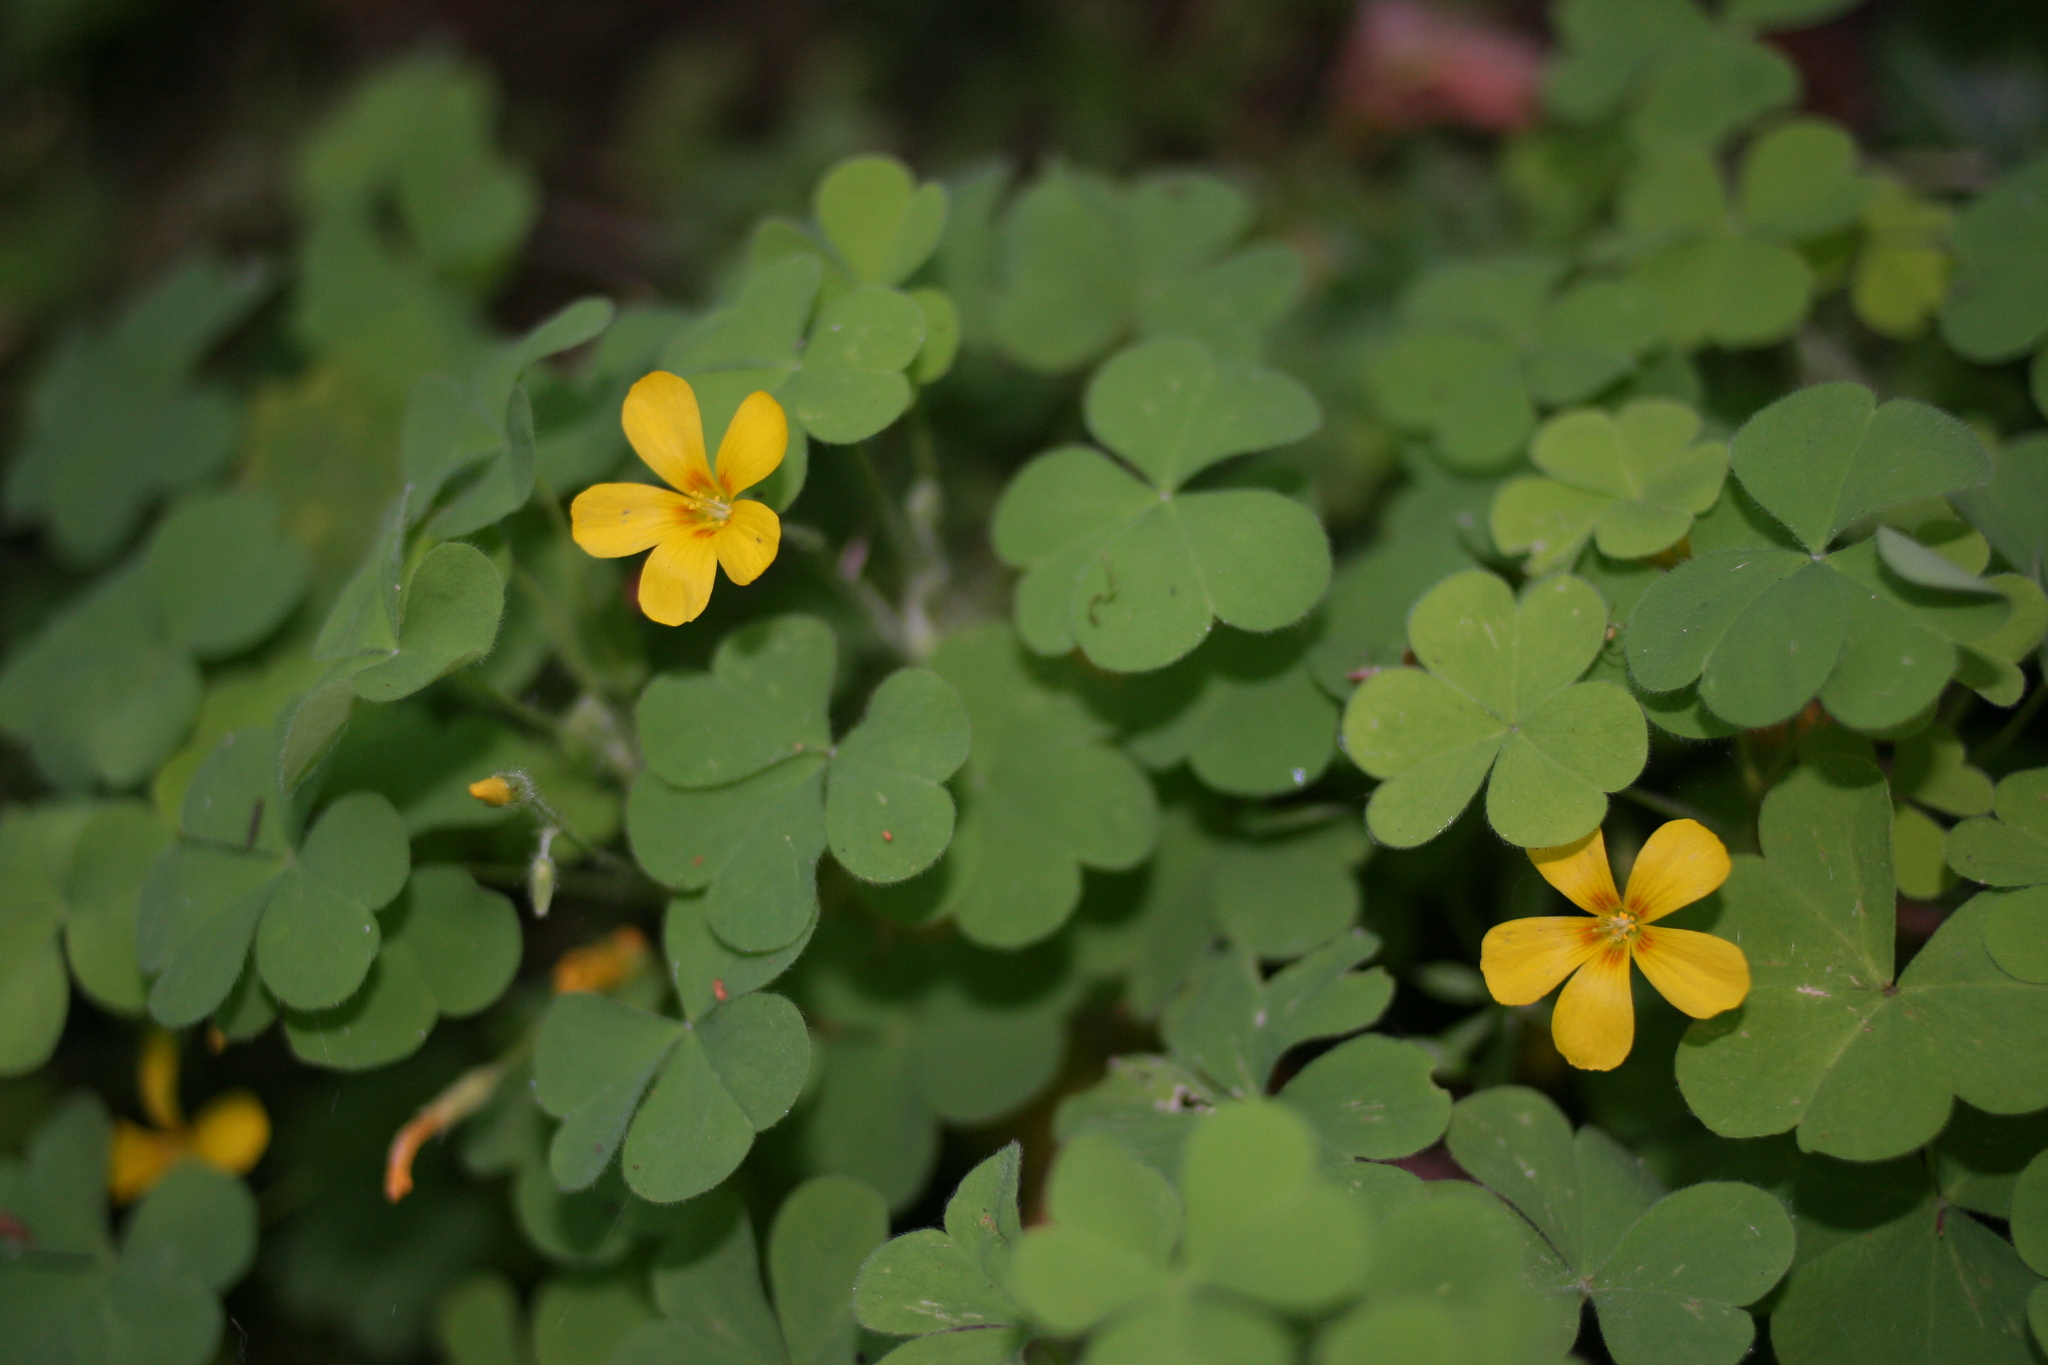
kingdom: Plantae
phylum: Tracheophyta
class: Magnoliopsida
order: Oxalidales
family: Oxalidaceae
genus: Oxalis
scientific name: Oxalis suksdorfii
